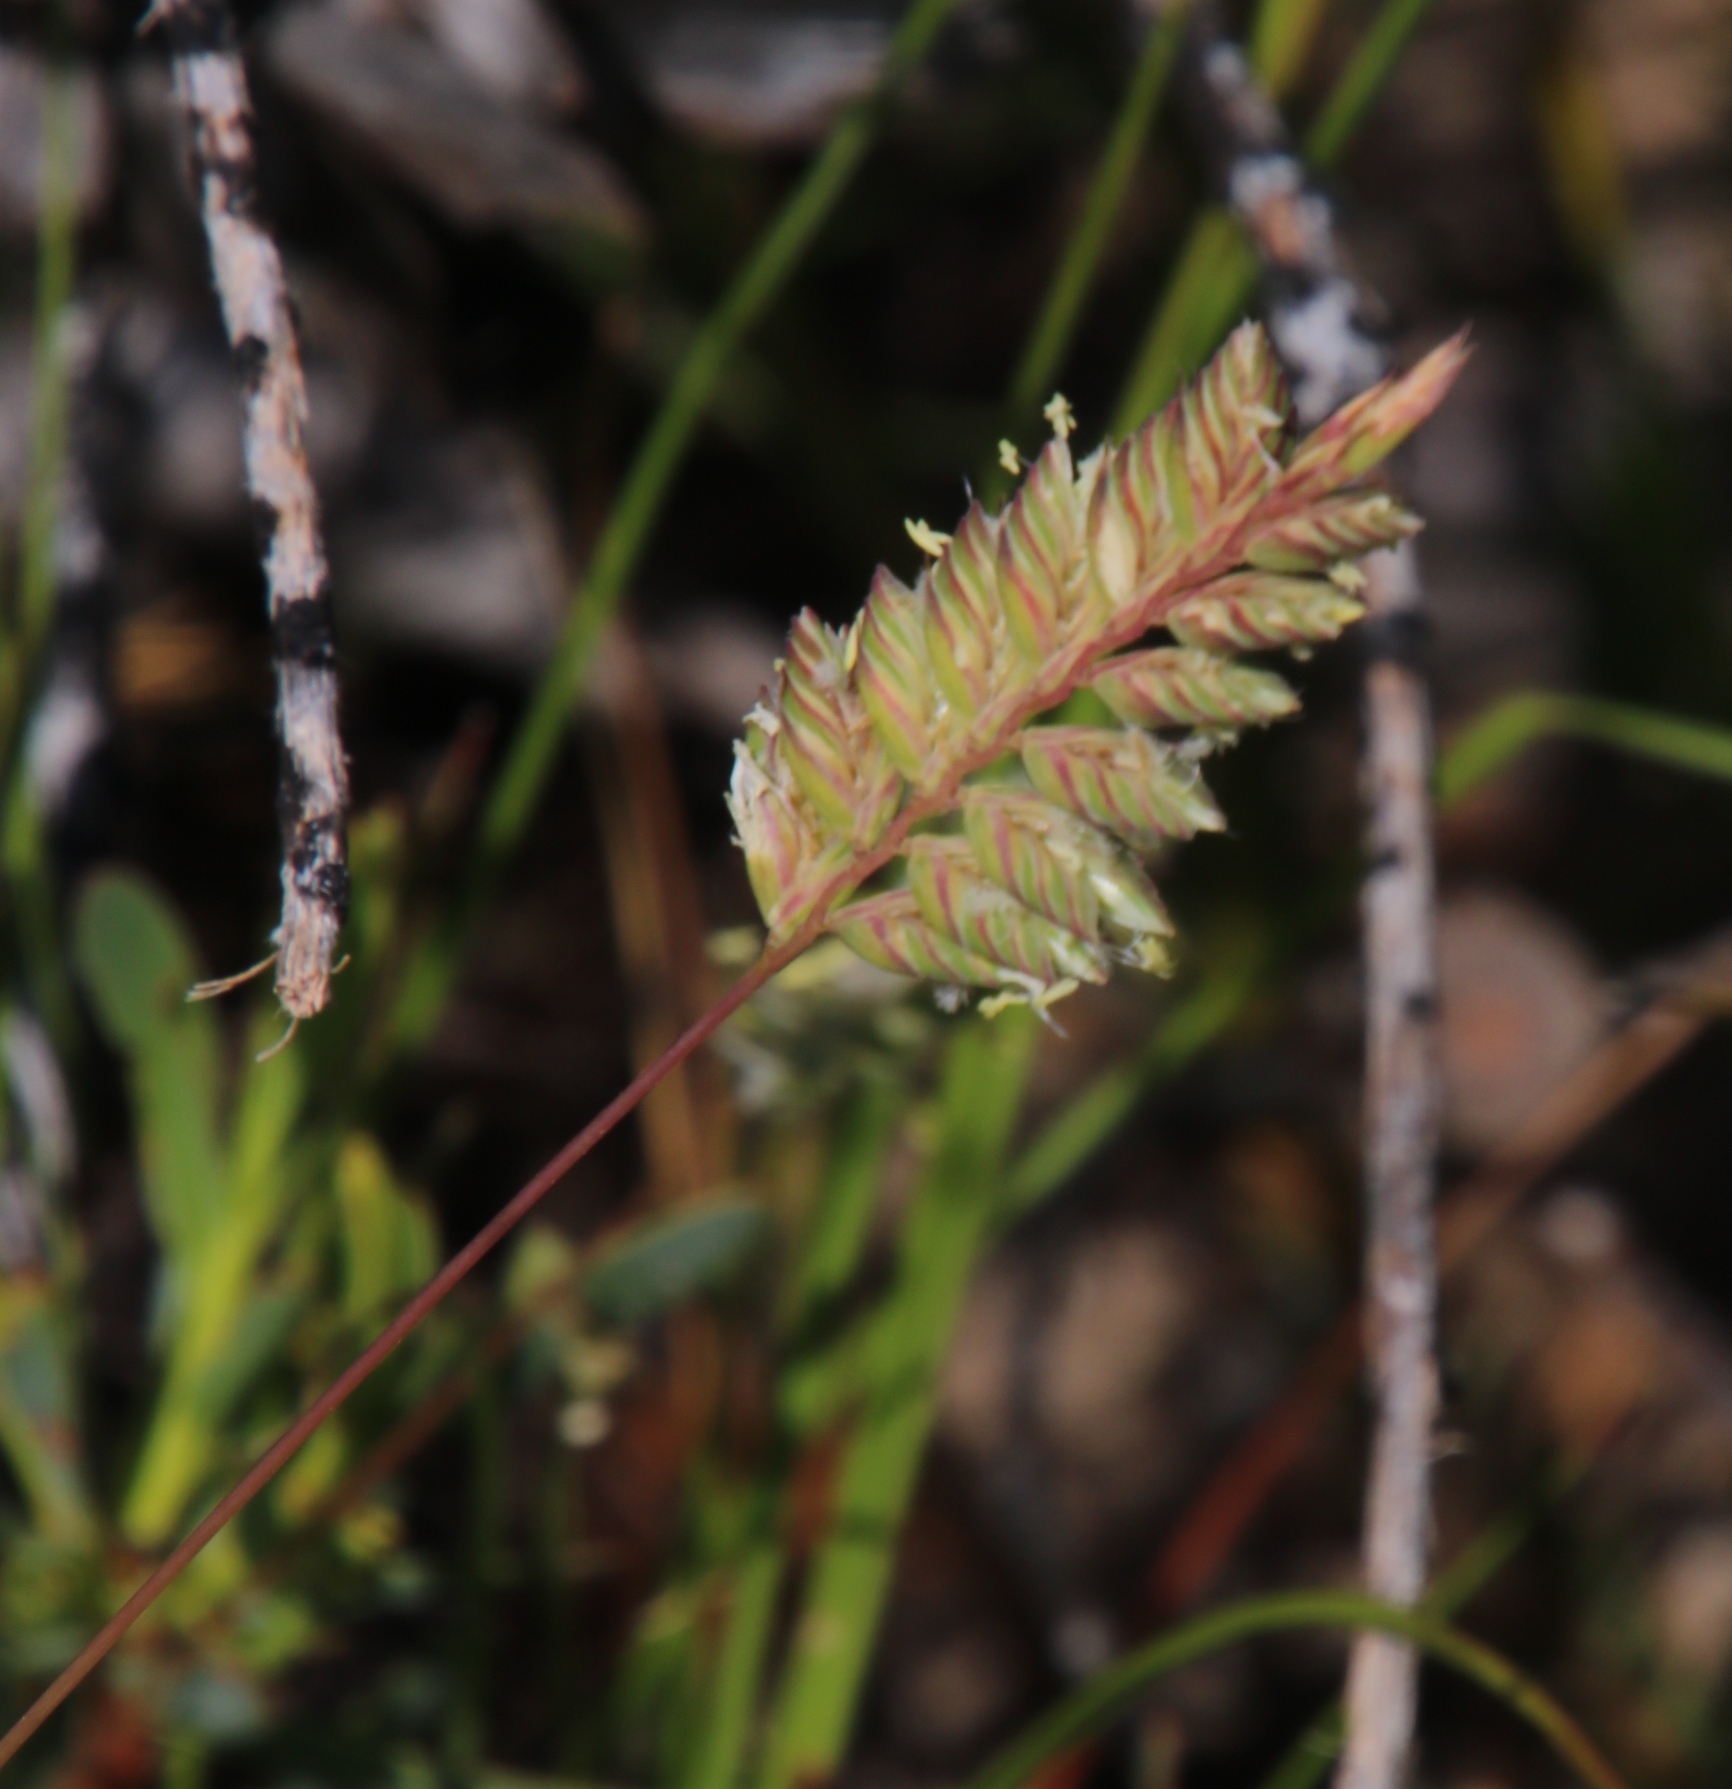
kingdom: Plantae
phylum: Tracheophyta
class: Liliopsida
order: Poales
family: Poaceae
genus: Tribolium
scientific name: Tribolium uniolae
